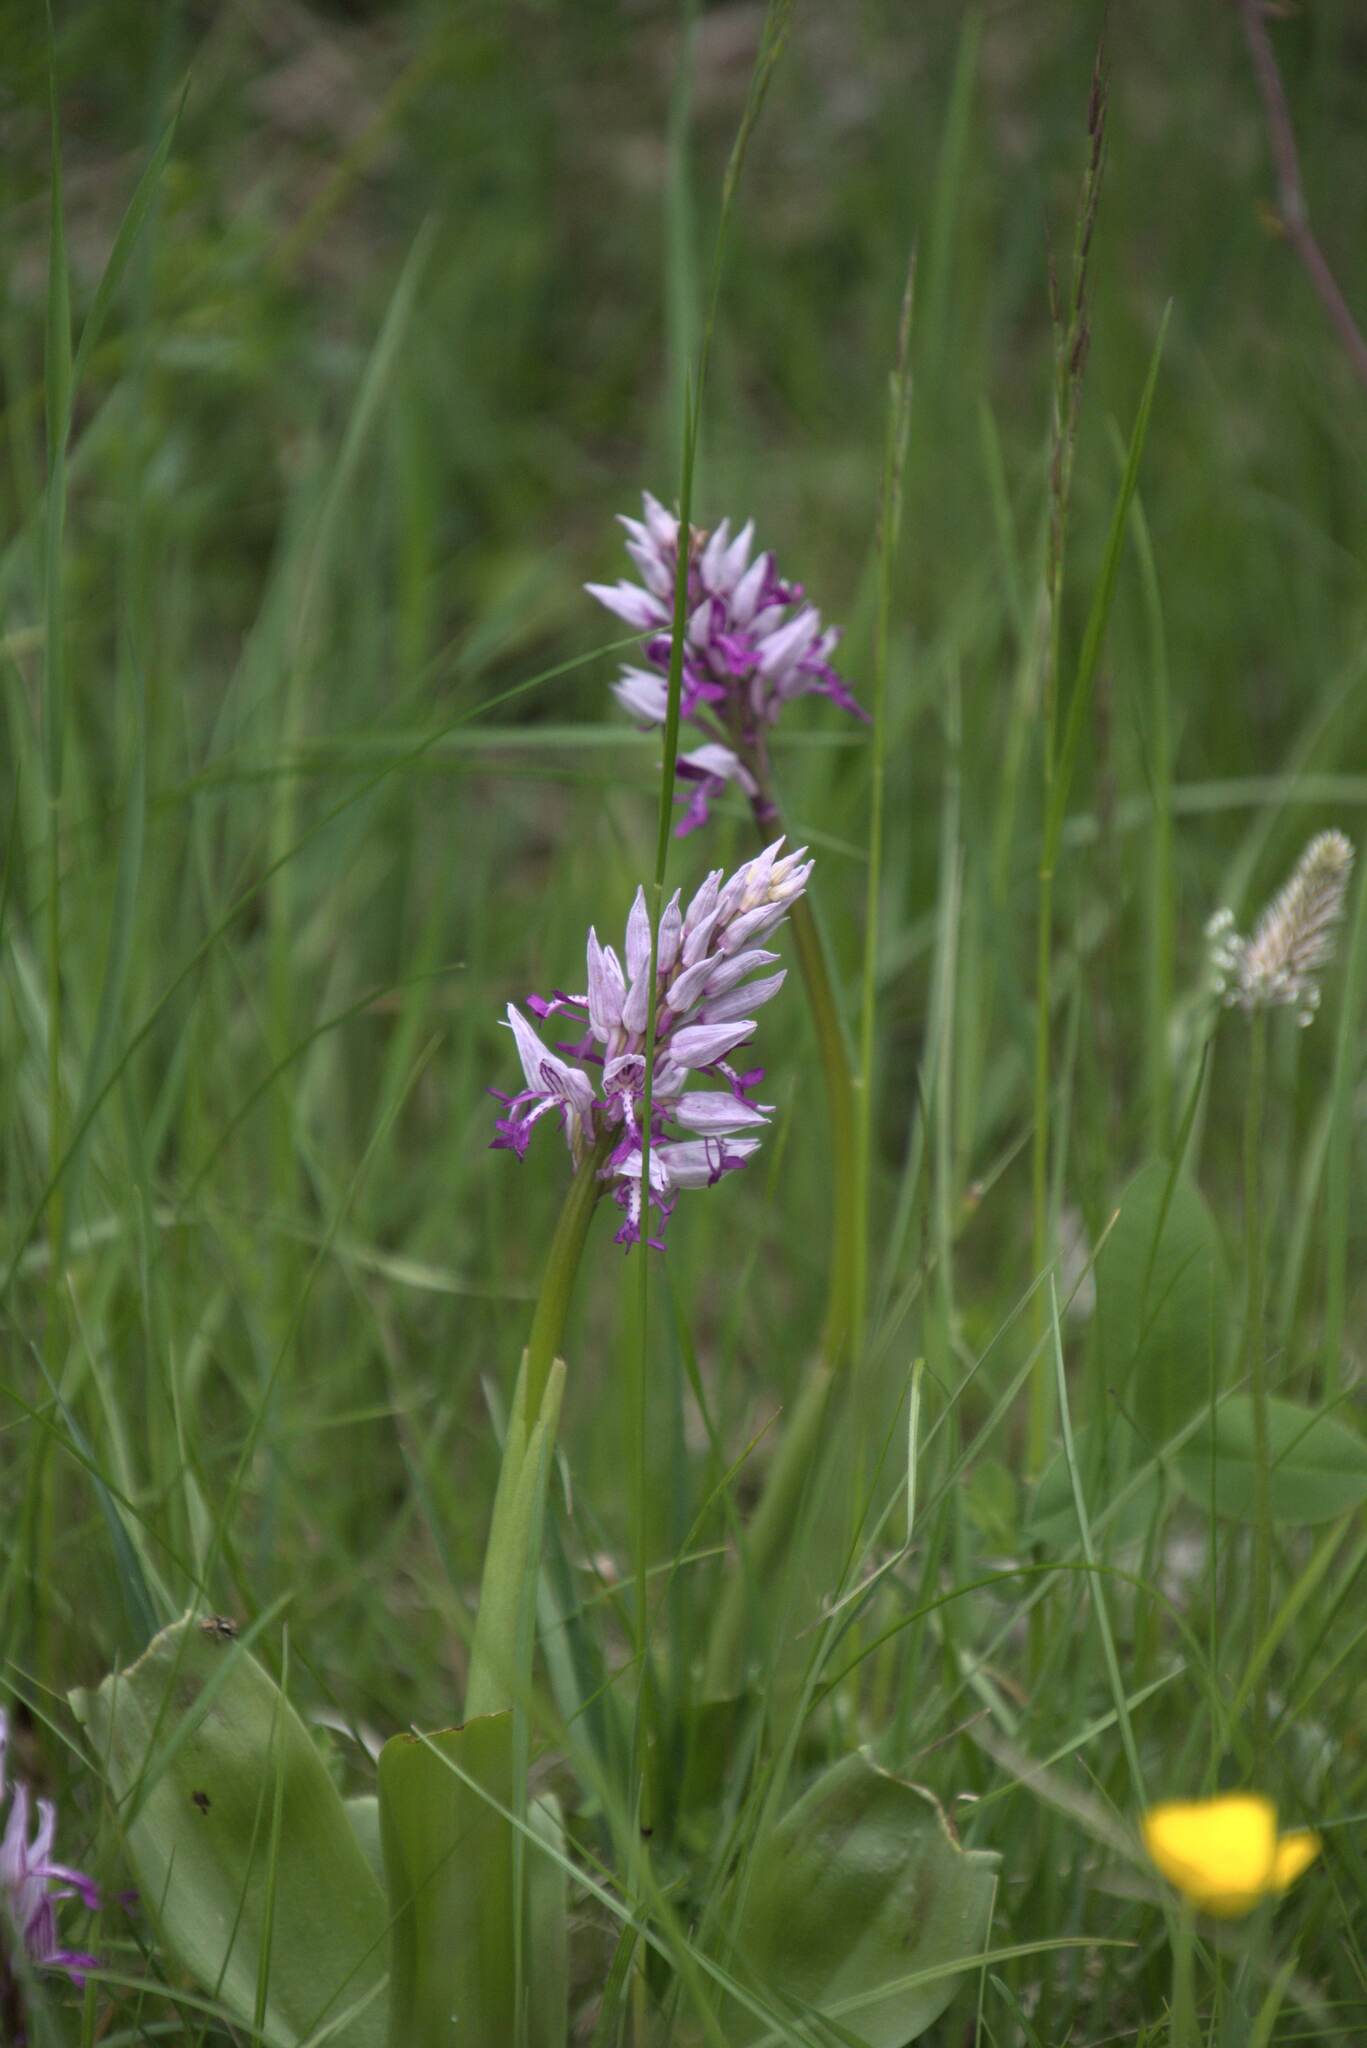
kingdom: Plantae
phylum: Tracheophyta
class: Liliopsida
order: Asparagales
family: Orchidaceae
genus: Orchis
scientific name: Orchis militaris
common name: Military orchid
